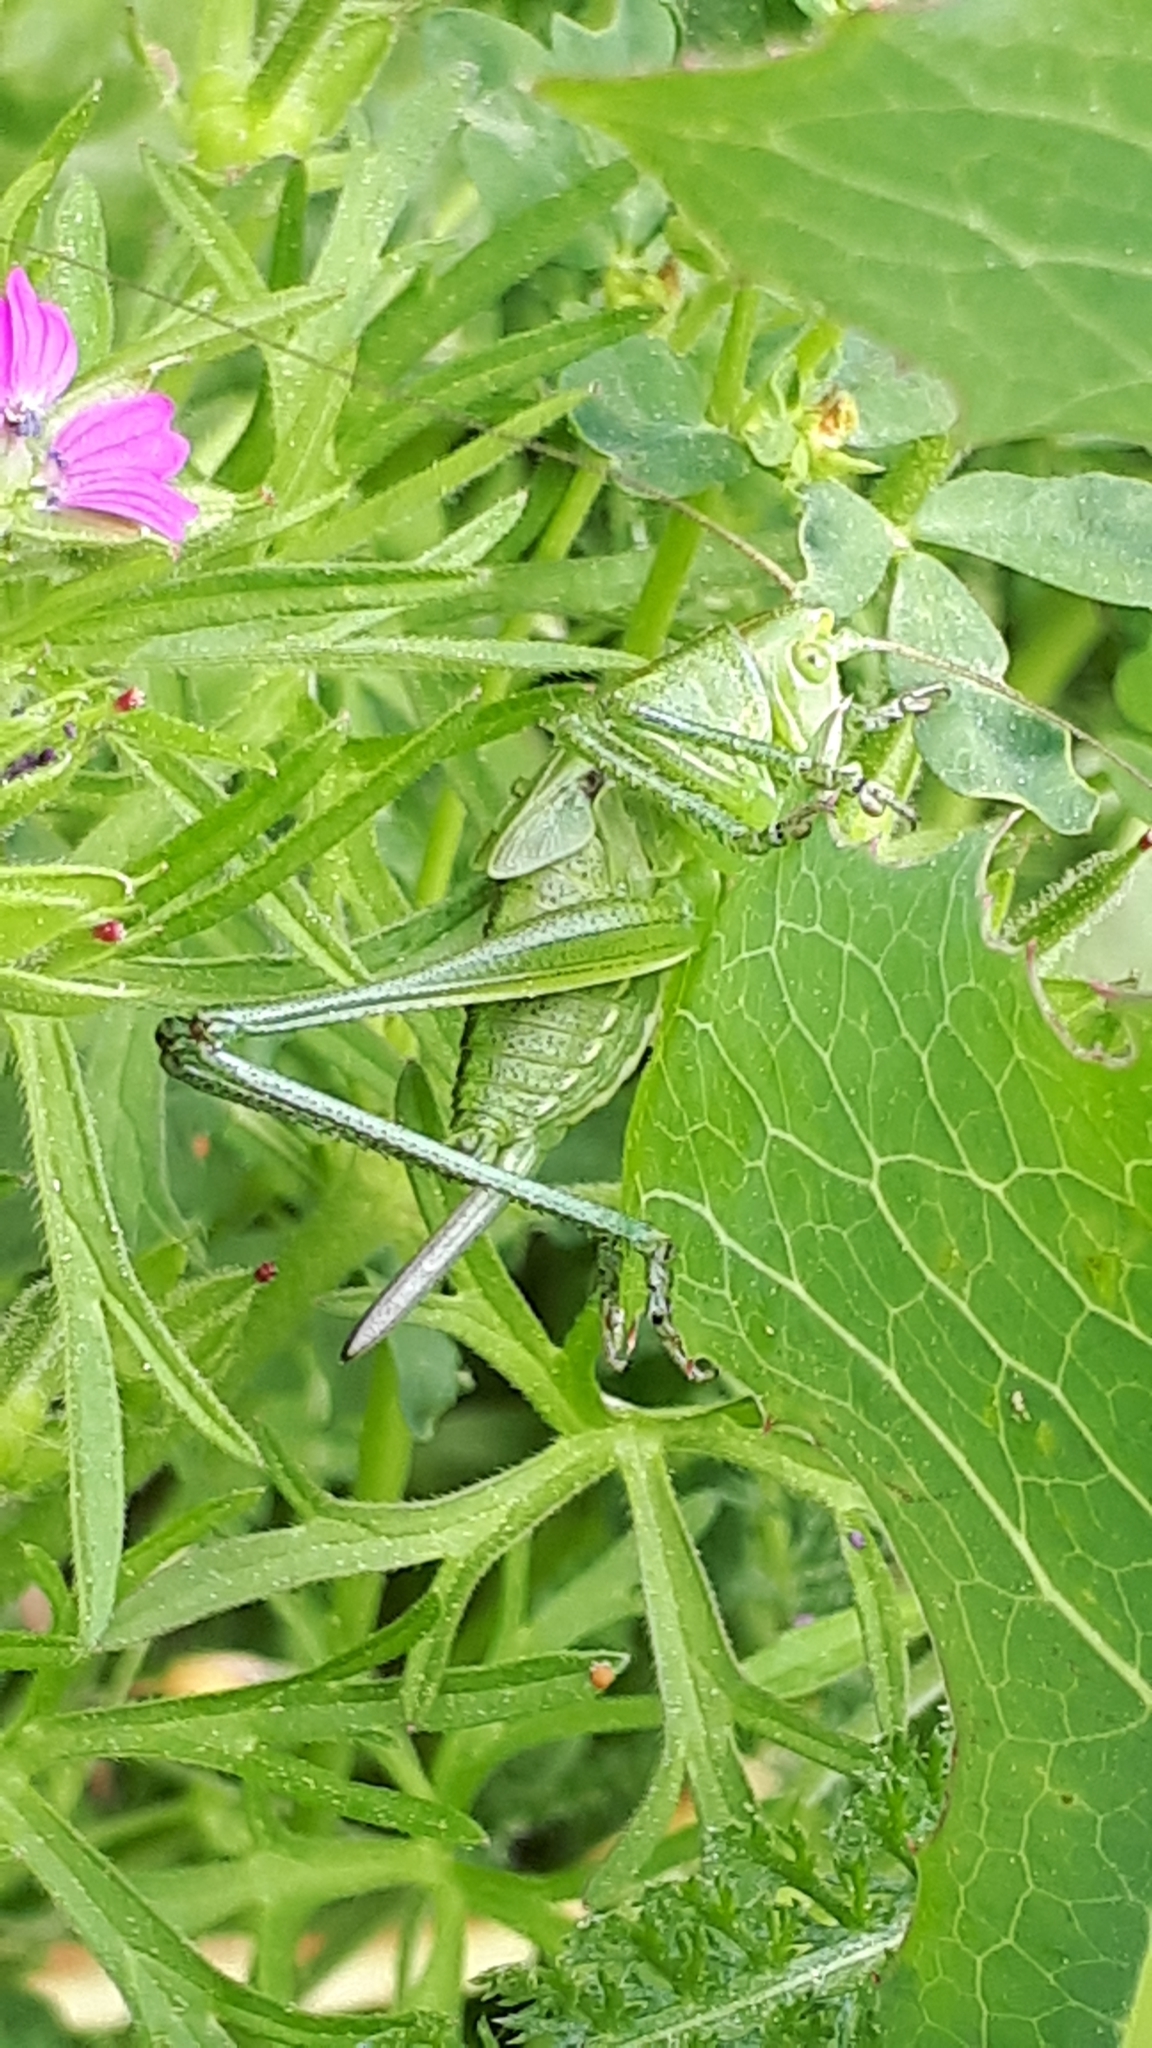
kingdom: Animalia
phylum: Arthropoda
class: Insecta
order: Orthoptera
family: Tettigoniidae
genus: Tettigonia
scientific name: Tettigonia viridissima
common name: Great green bush-cricket
